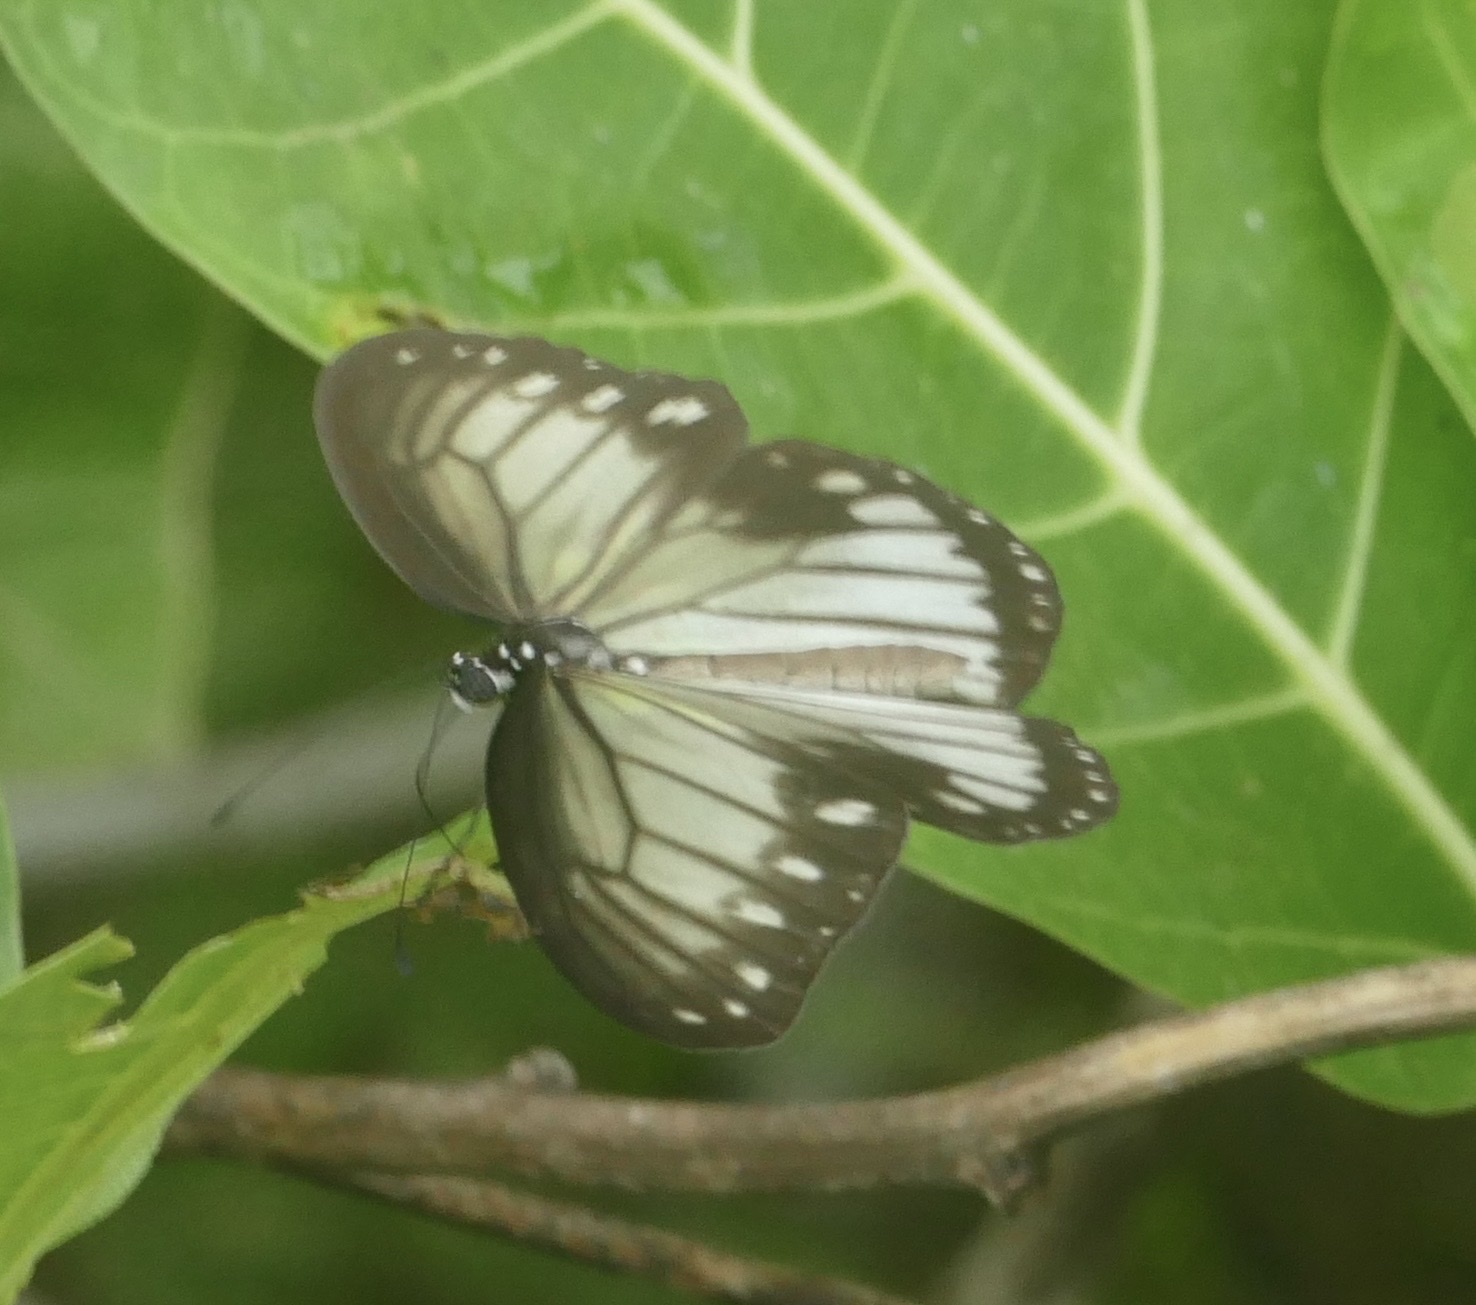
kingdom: Animalia
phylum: Arthropoda
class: Insecta
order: Lepidoptera
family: Nymphalidae
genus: Ideopsis
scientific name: Ideopsis vitrea
